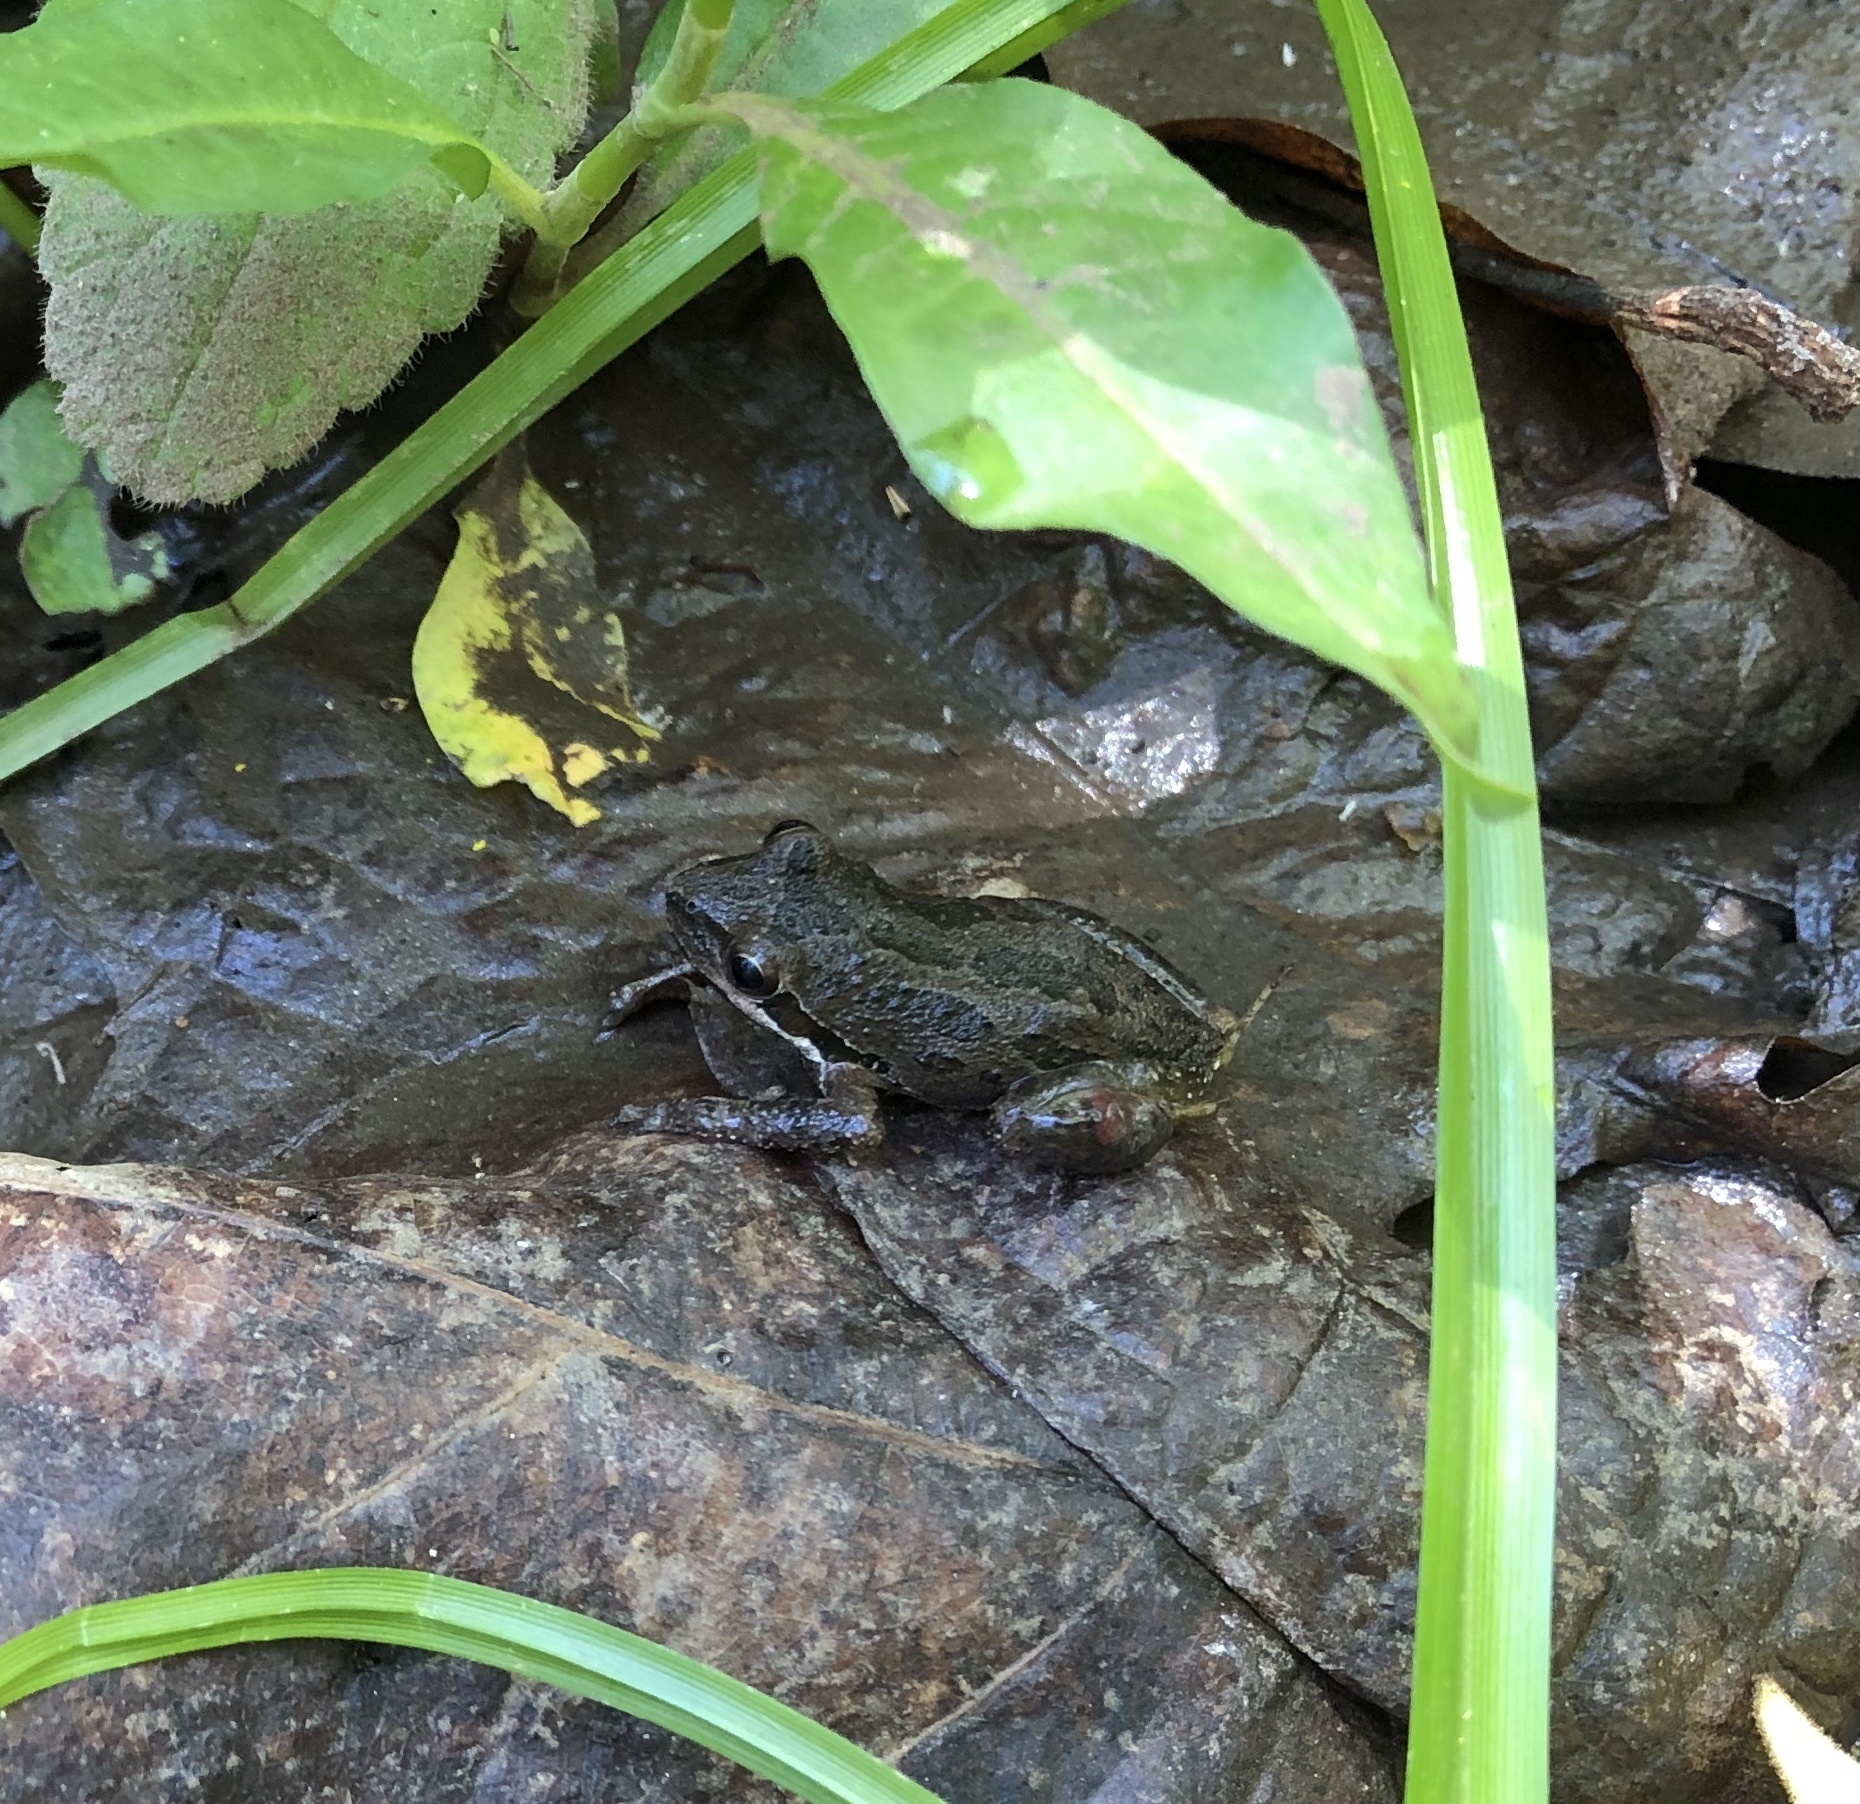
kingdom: Animalia
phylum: Chordata
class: Amphibia
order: Anura
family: Hylidae
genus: Pseudacris
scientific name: Pseudacris regilla
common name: Pacific chorus frog
